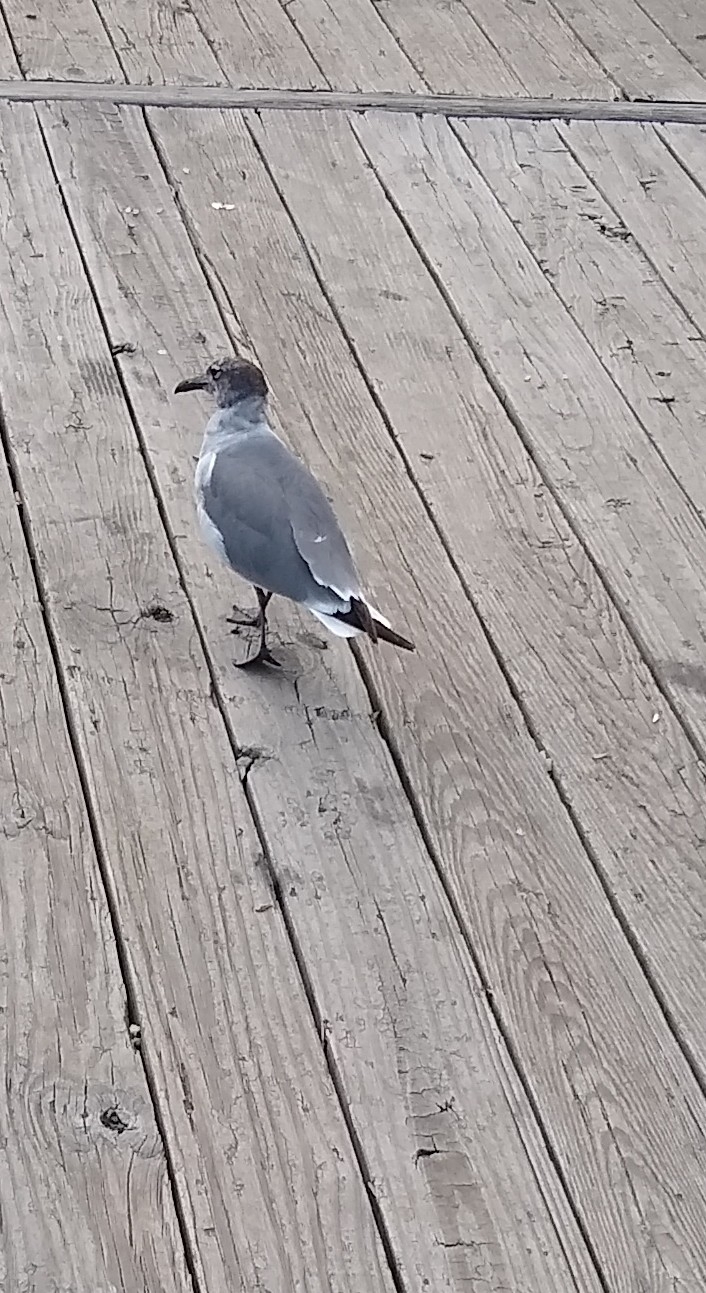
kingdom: Animalia
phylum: Chordata
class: Aves
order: Charadriiformes
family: Laridae
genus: Leucophaeus
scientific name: Leucophaeus atricilla
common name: Laughing gull
